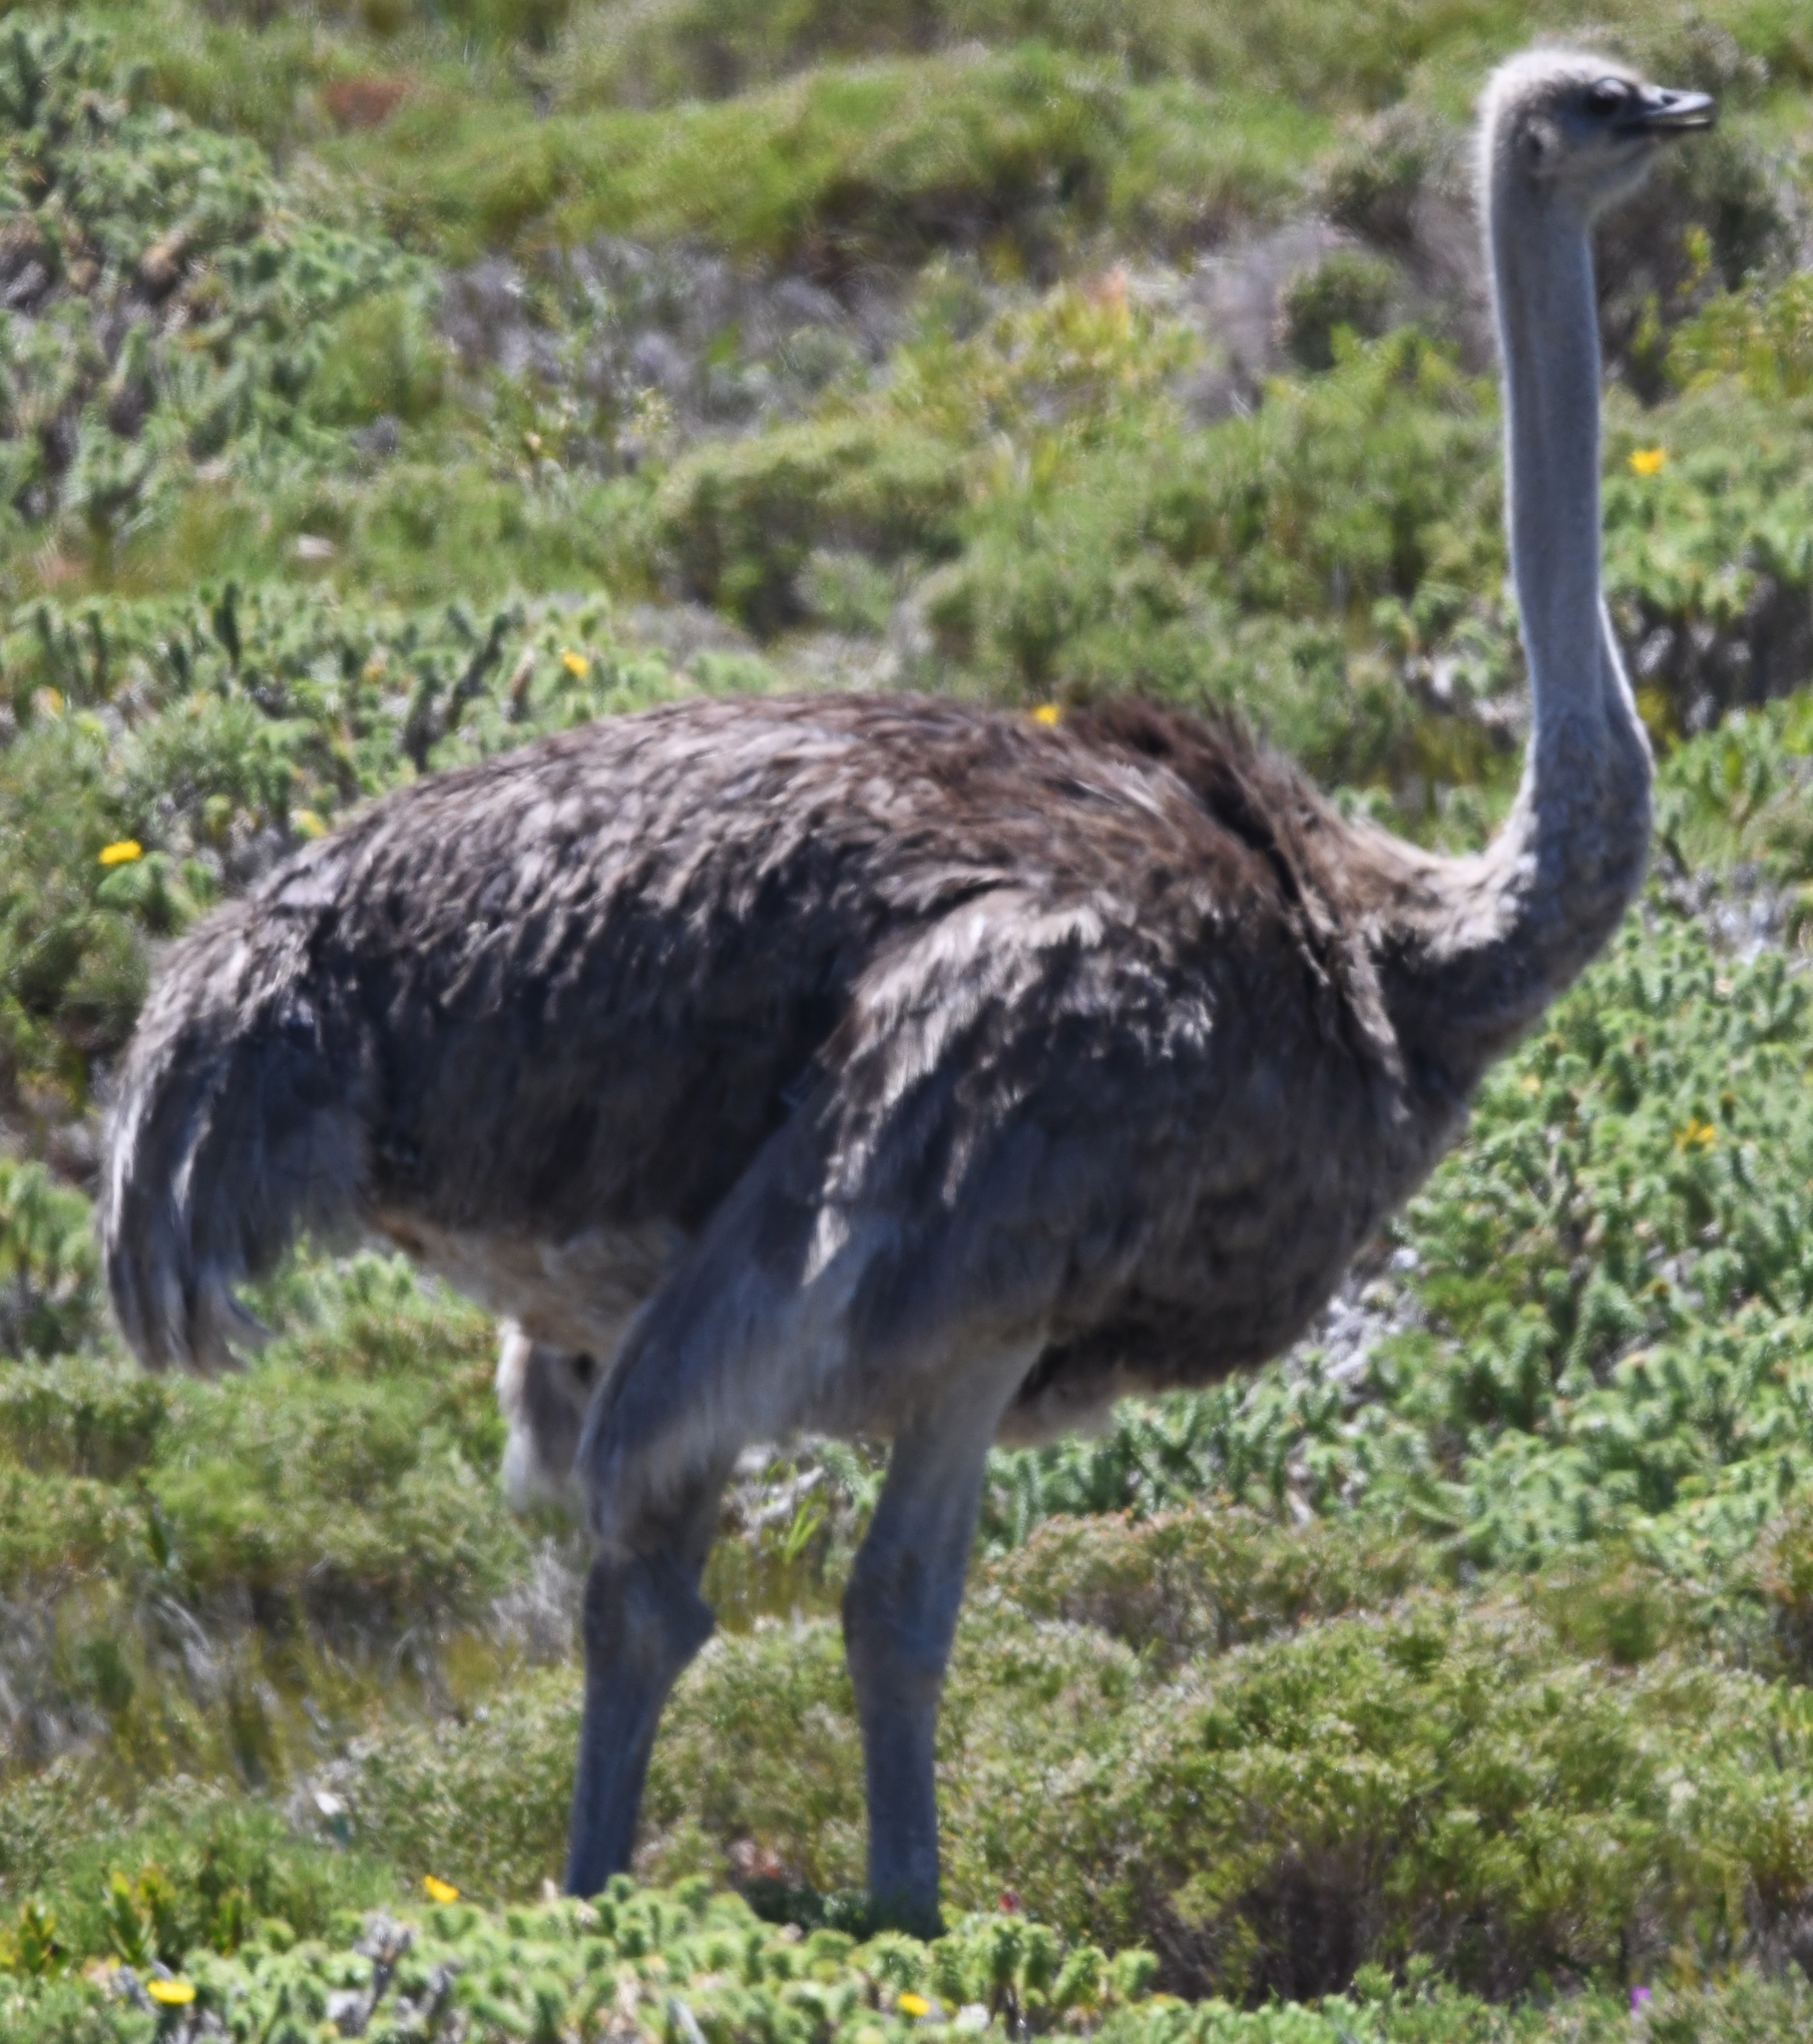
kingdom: Animalia
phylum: Chordata
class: Aves
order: Struthioniformes
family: Struthionidae
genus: Struthio
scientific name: Struthio camelus
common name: Common ostrich
